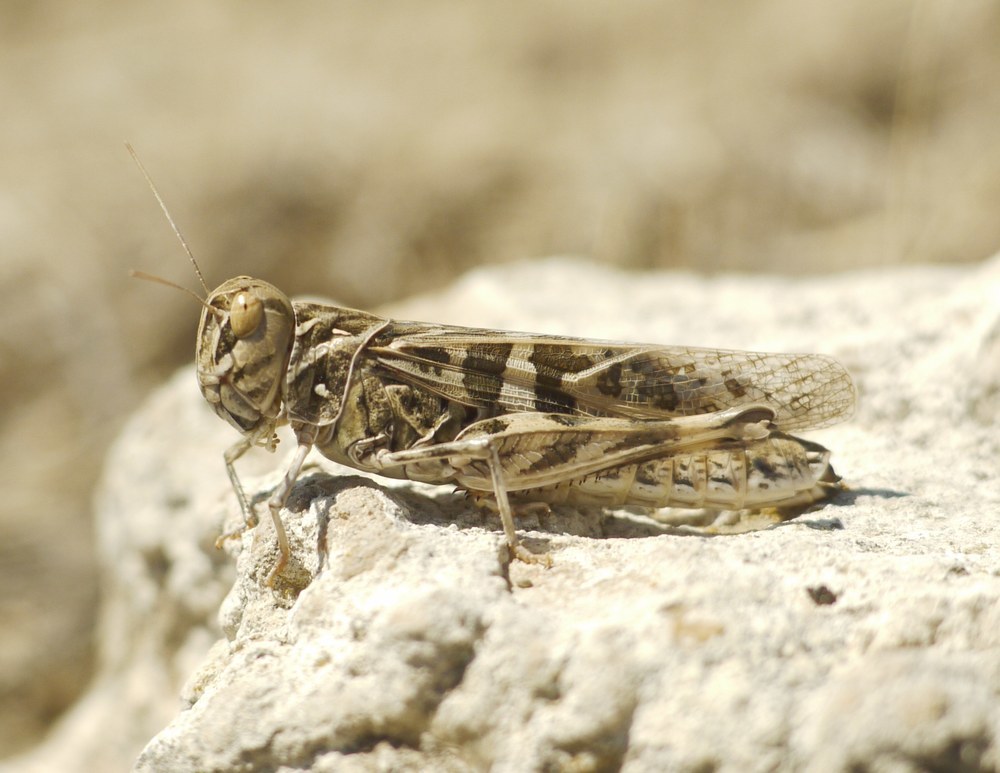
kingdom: Animalia
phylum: Arthropoda
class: Insecta
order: Orthoptera
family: Acrididae
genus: Oedaleus
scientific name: Oedaleus decorus
